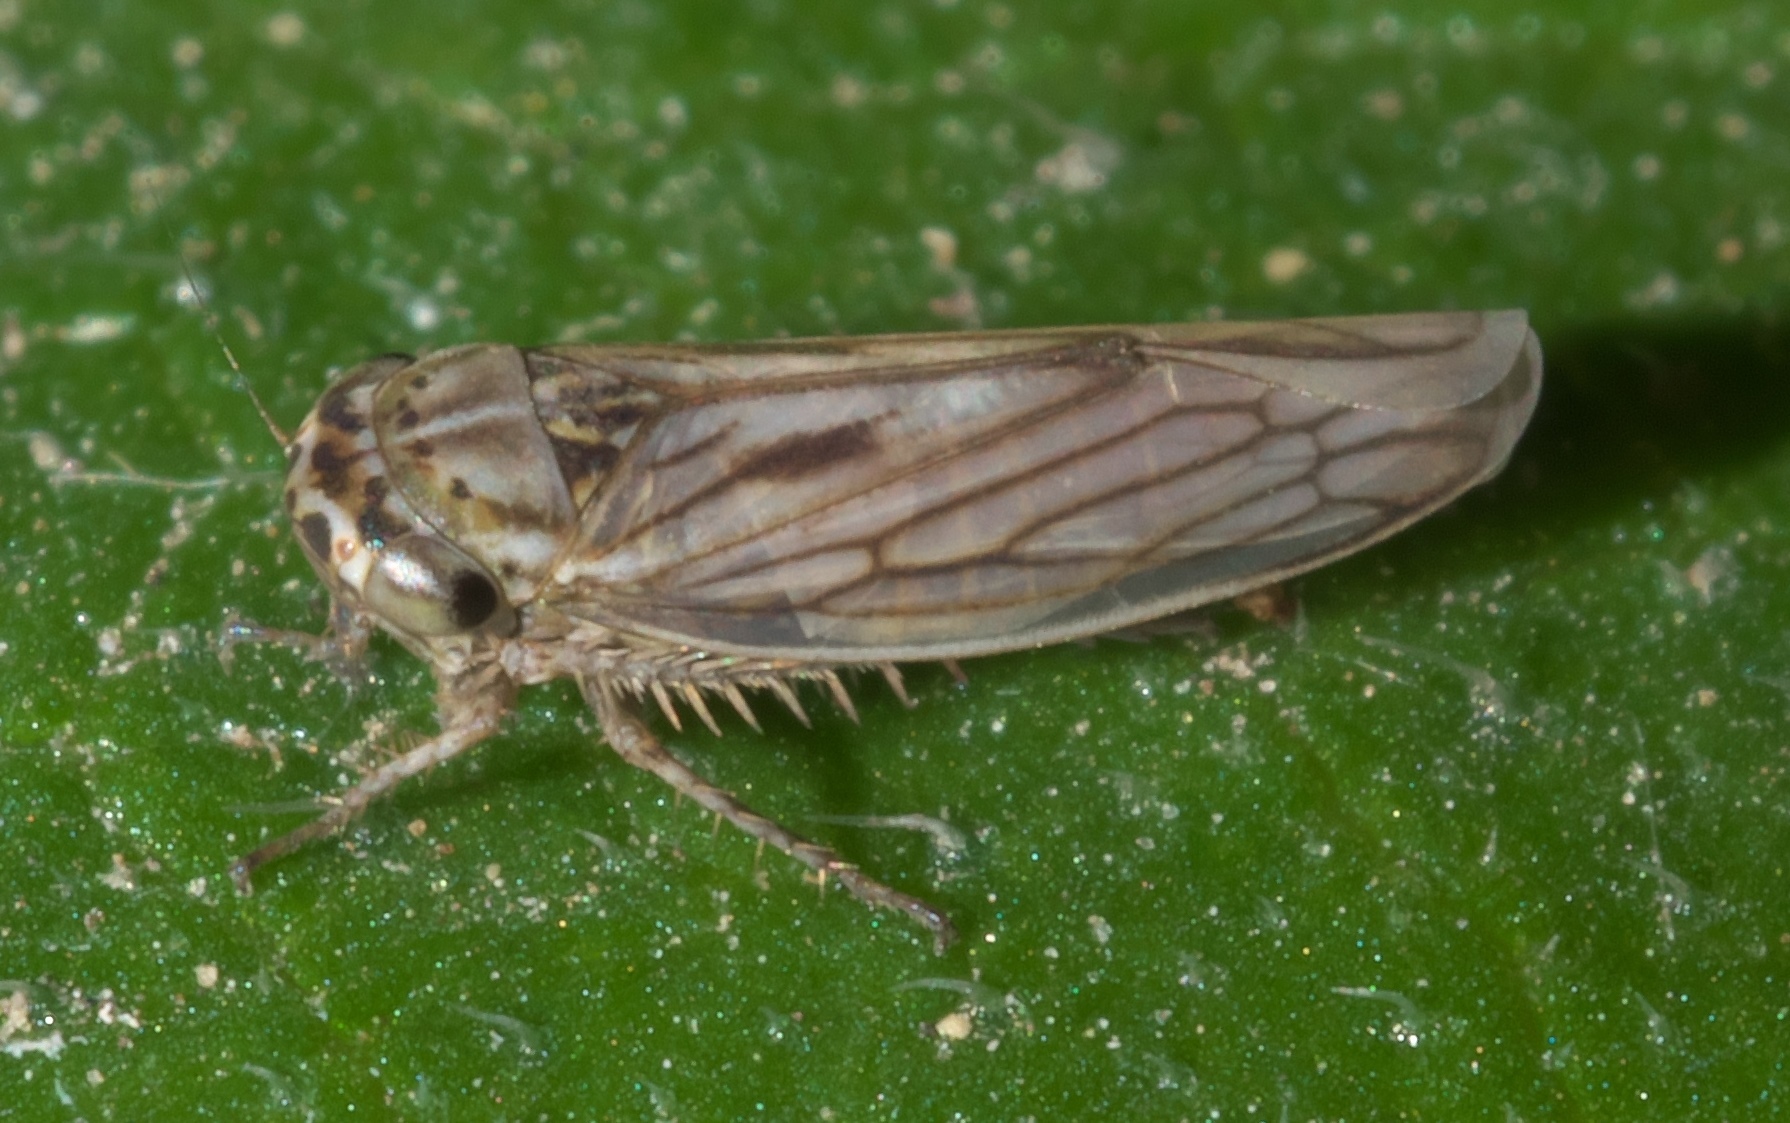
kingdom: Animalia
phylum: Arthropoda
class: Insecta
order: Hemiptera
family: Cicadellidae
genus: Exitianus
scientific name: Exitianus exitiosus
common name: Gray lawn leafhopper
